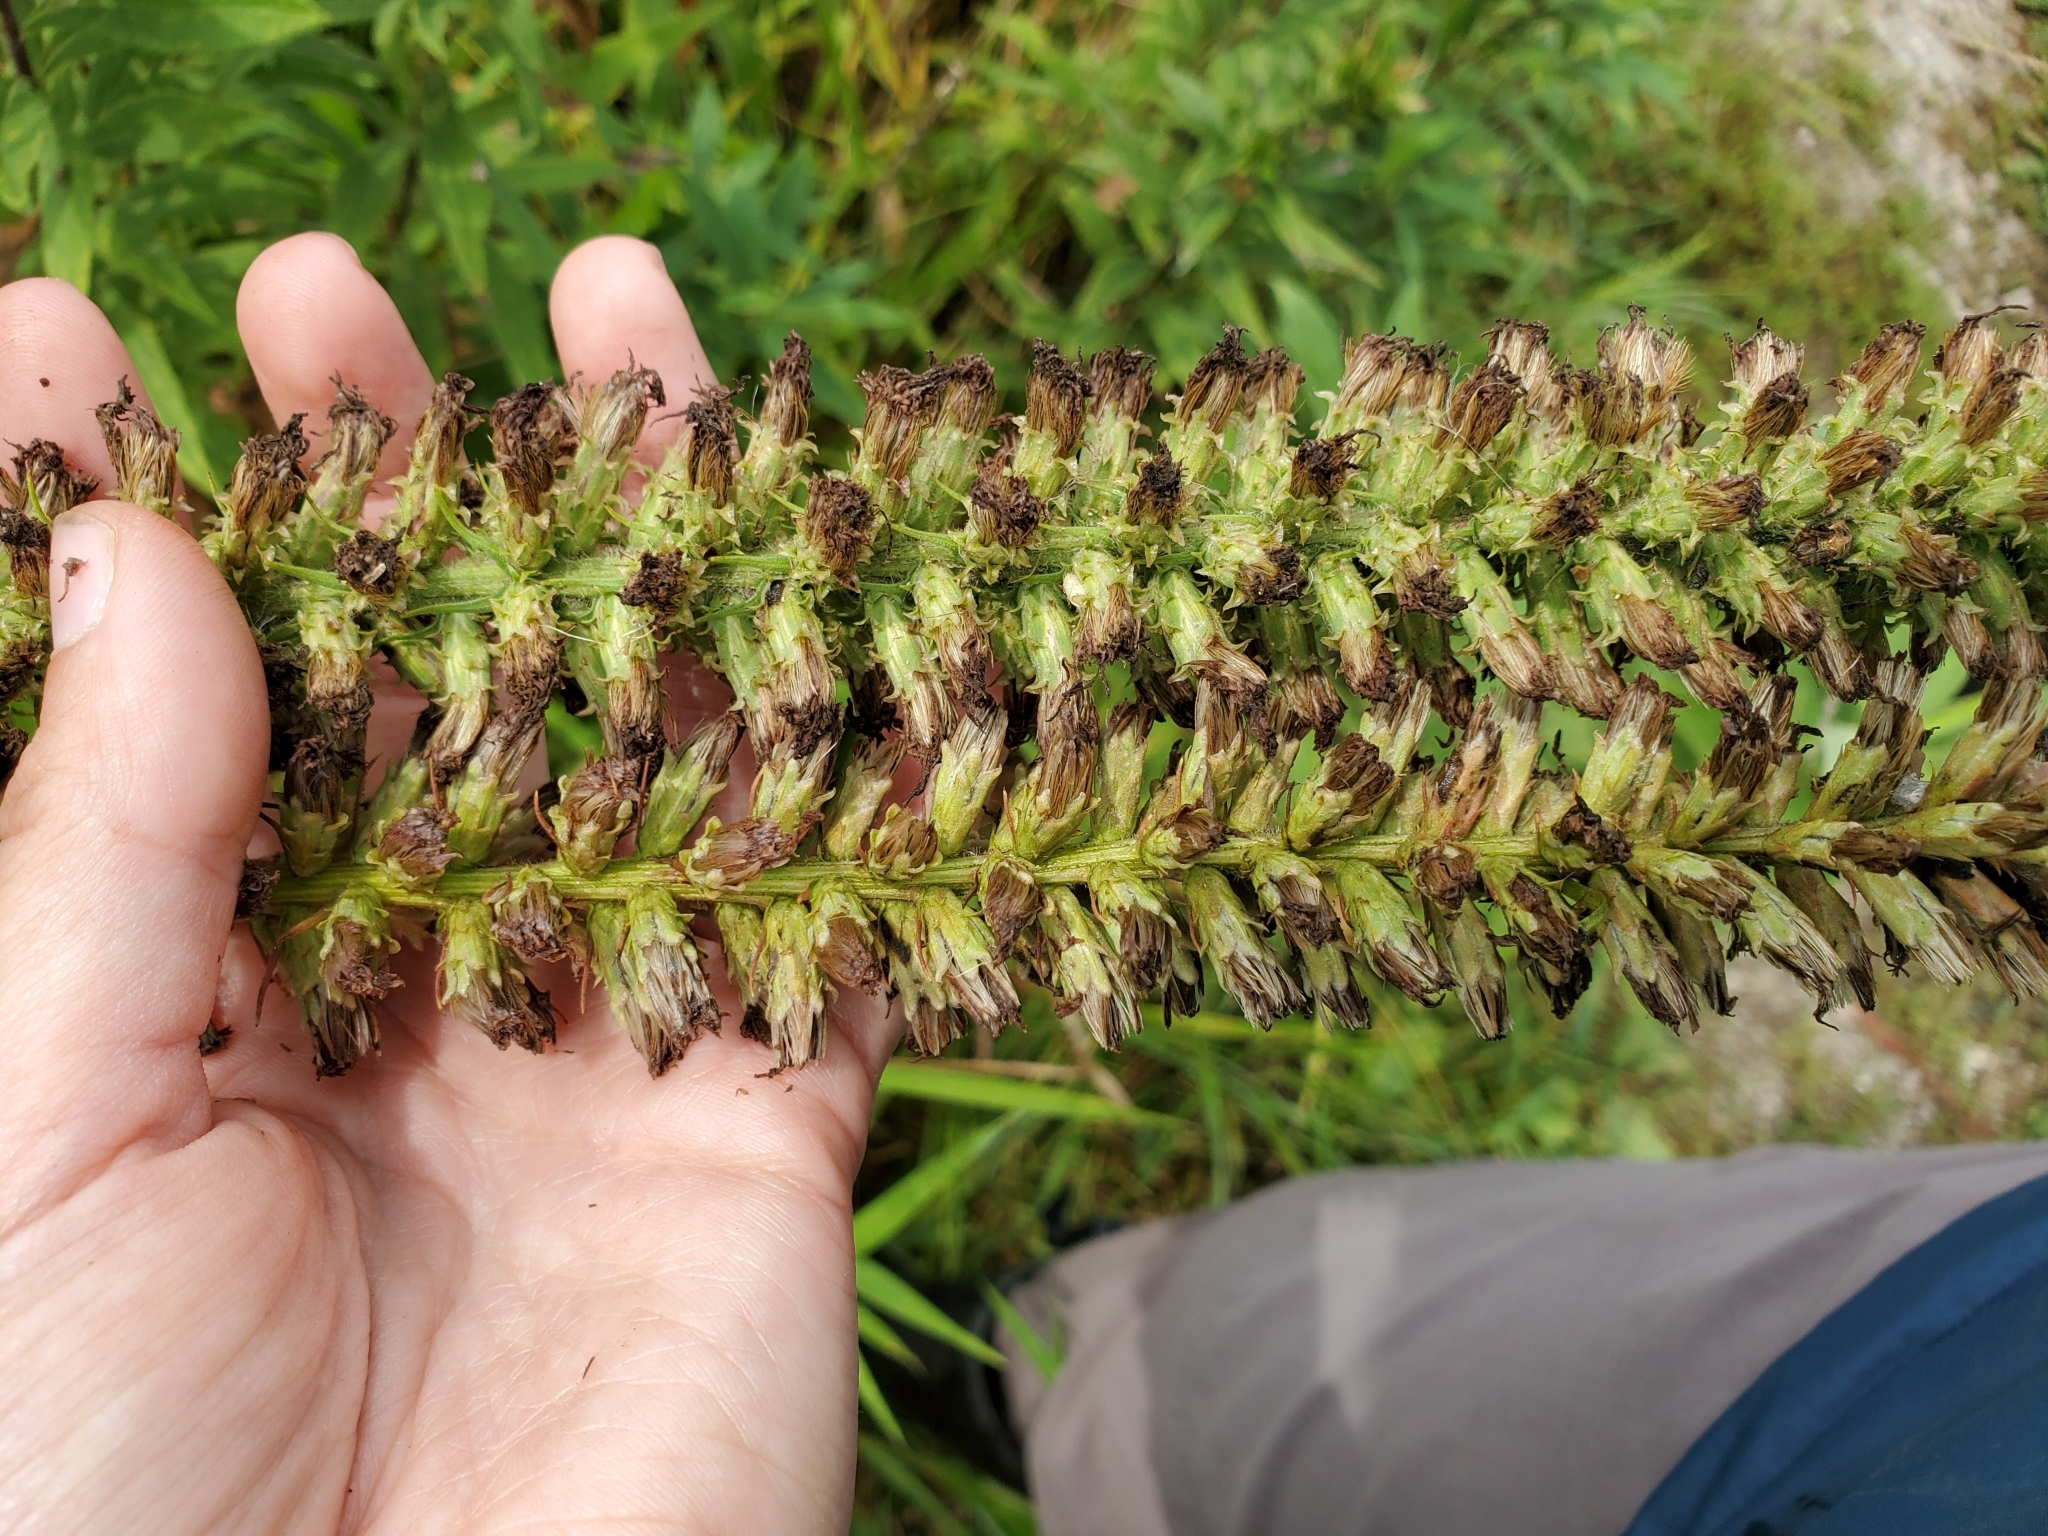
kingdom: Plantae
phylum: Tracheophyta
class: Magnoliopsida
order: Asterales
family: Asteraceae
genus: Liatris
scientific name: Liatris pycnostachya
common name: Cattail gayfeather
